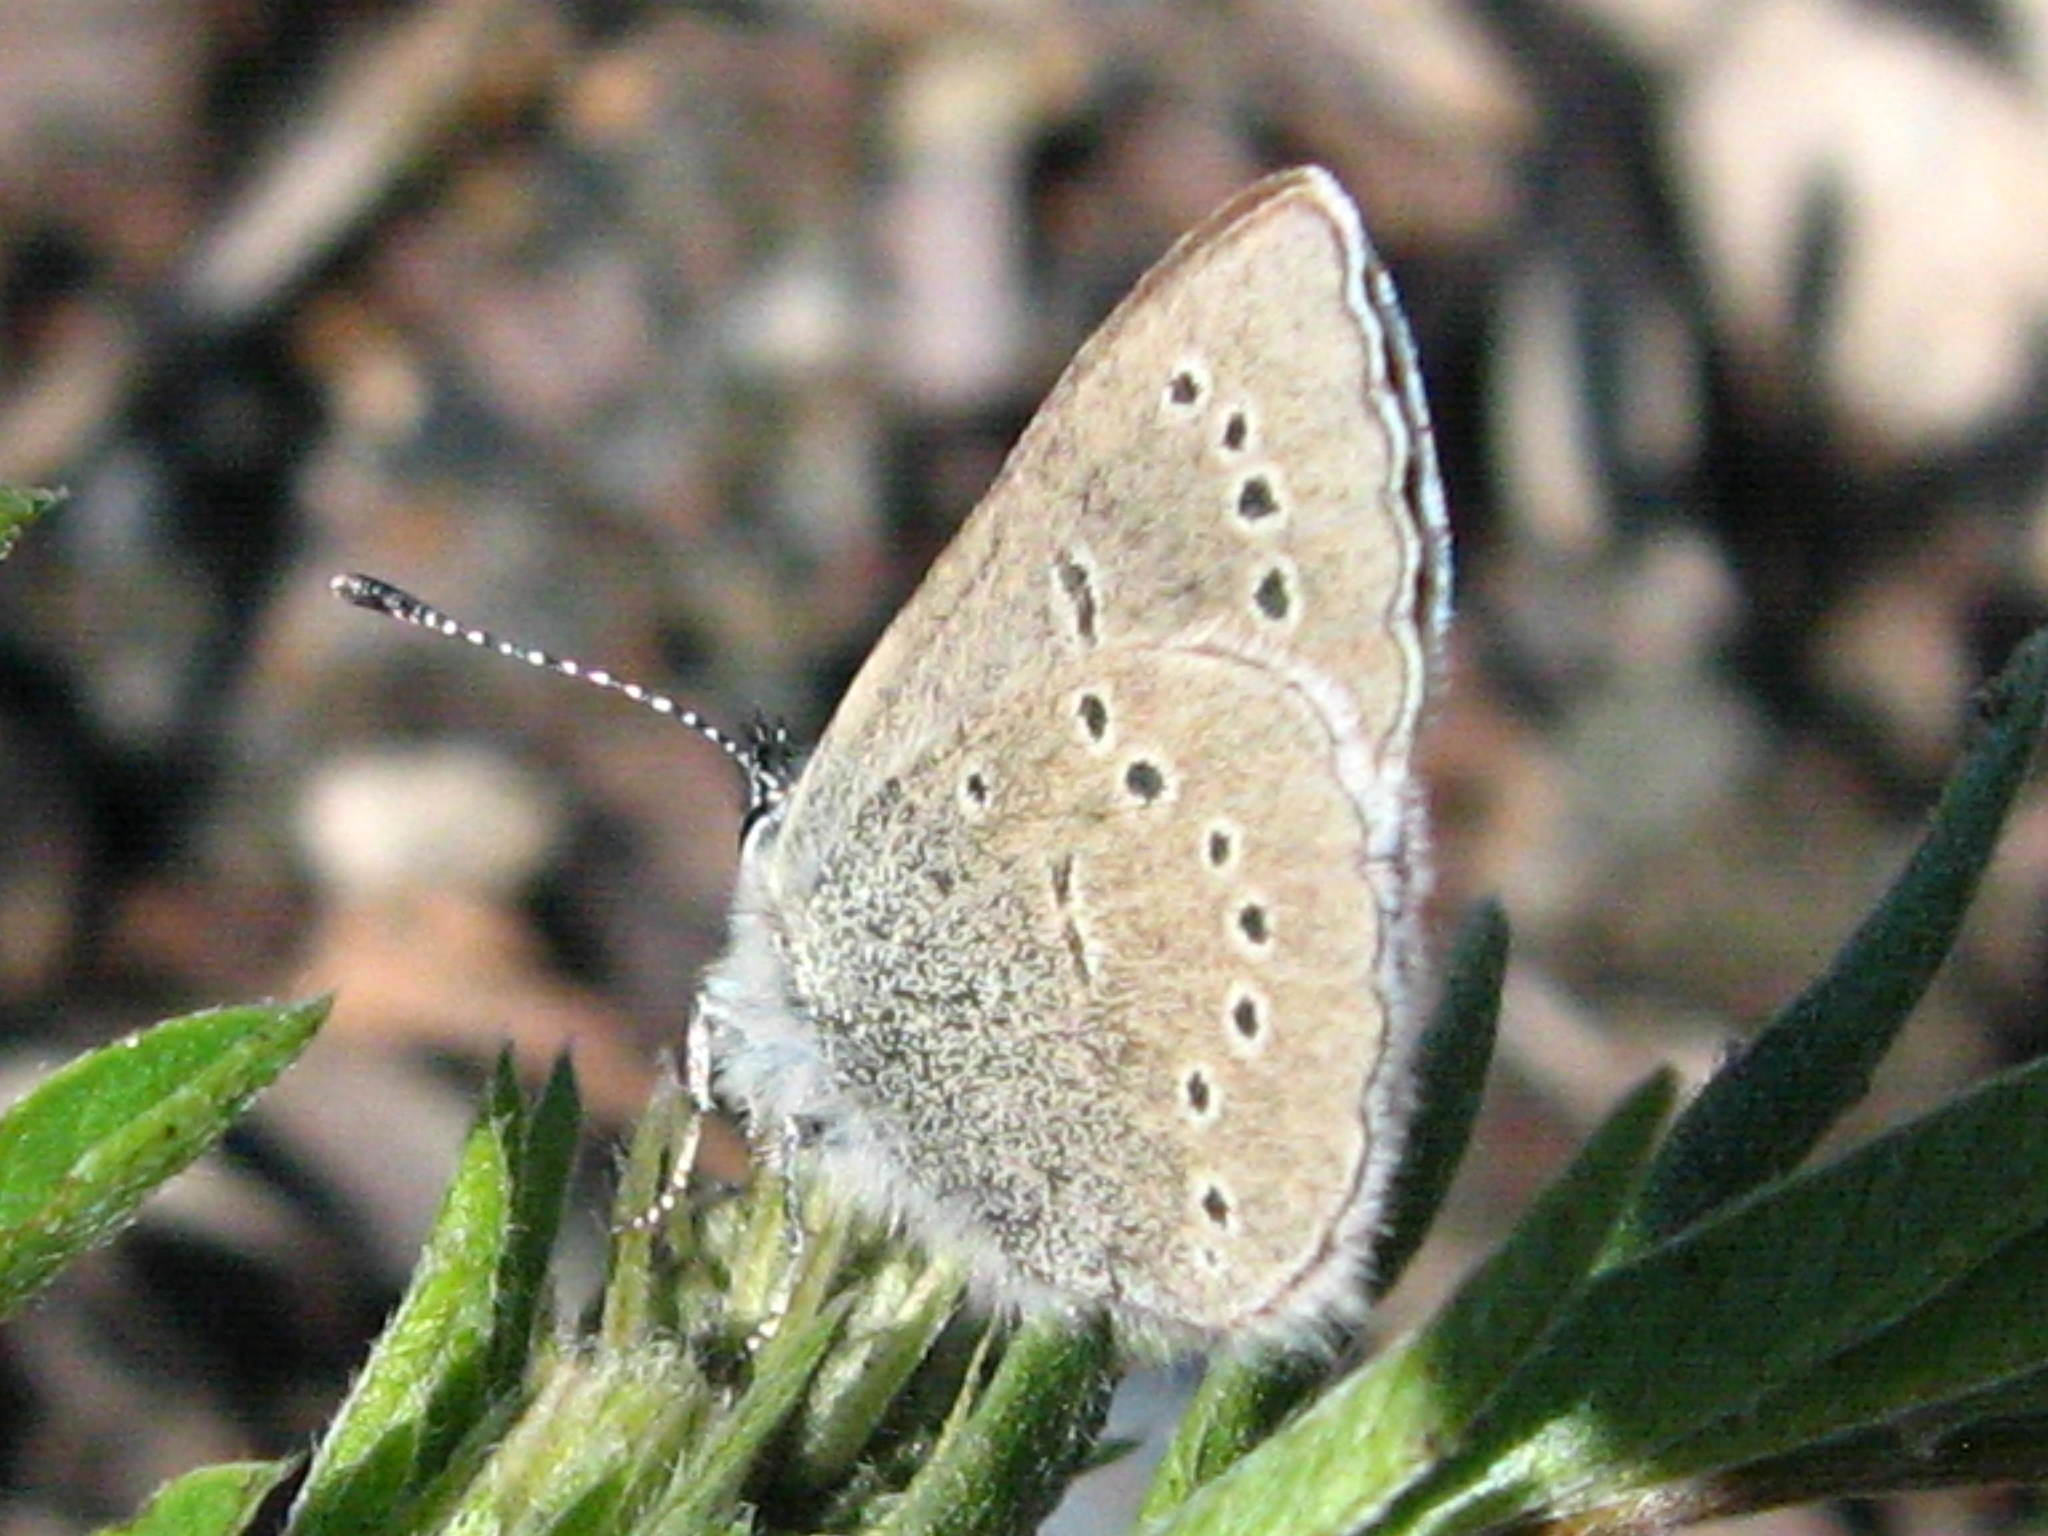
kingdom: Animalia
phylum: Arthropoda
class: Insecta
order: Lepidoptera
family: Lycaenidae
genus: Glaucopsyche
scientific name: Glaucopsyche lygdamus
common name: Silvery blue
